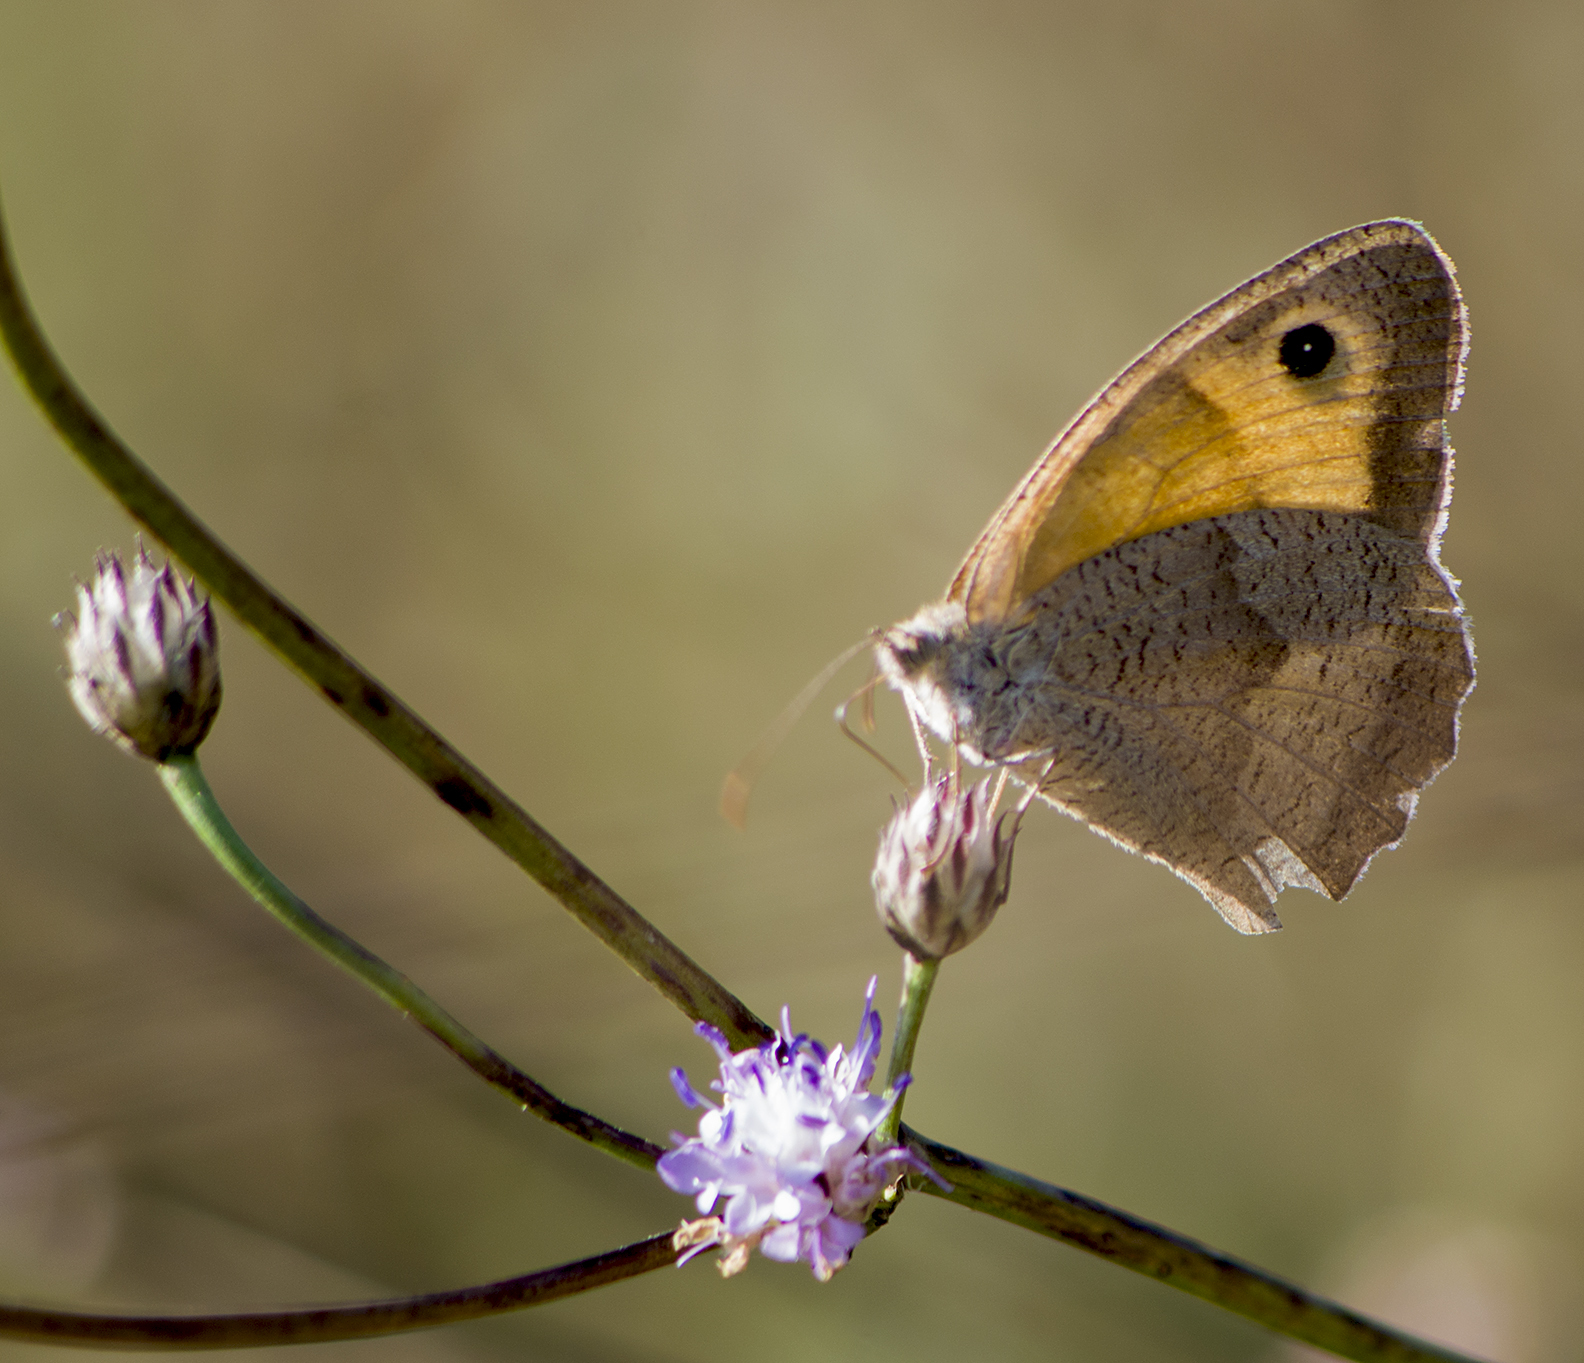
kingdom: Animalia
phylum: Arthropoda
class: Insecta
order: Lepidoptera
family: Nymphalidae
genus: Maniola
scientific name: Maniola jurtina
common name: Meadow brown
